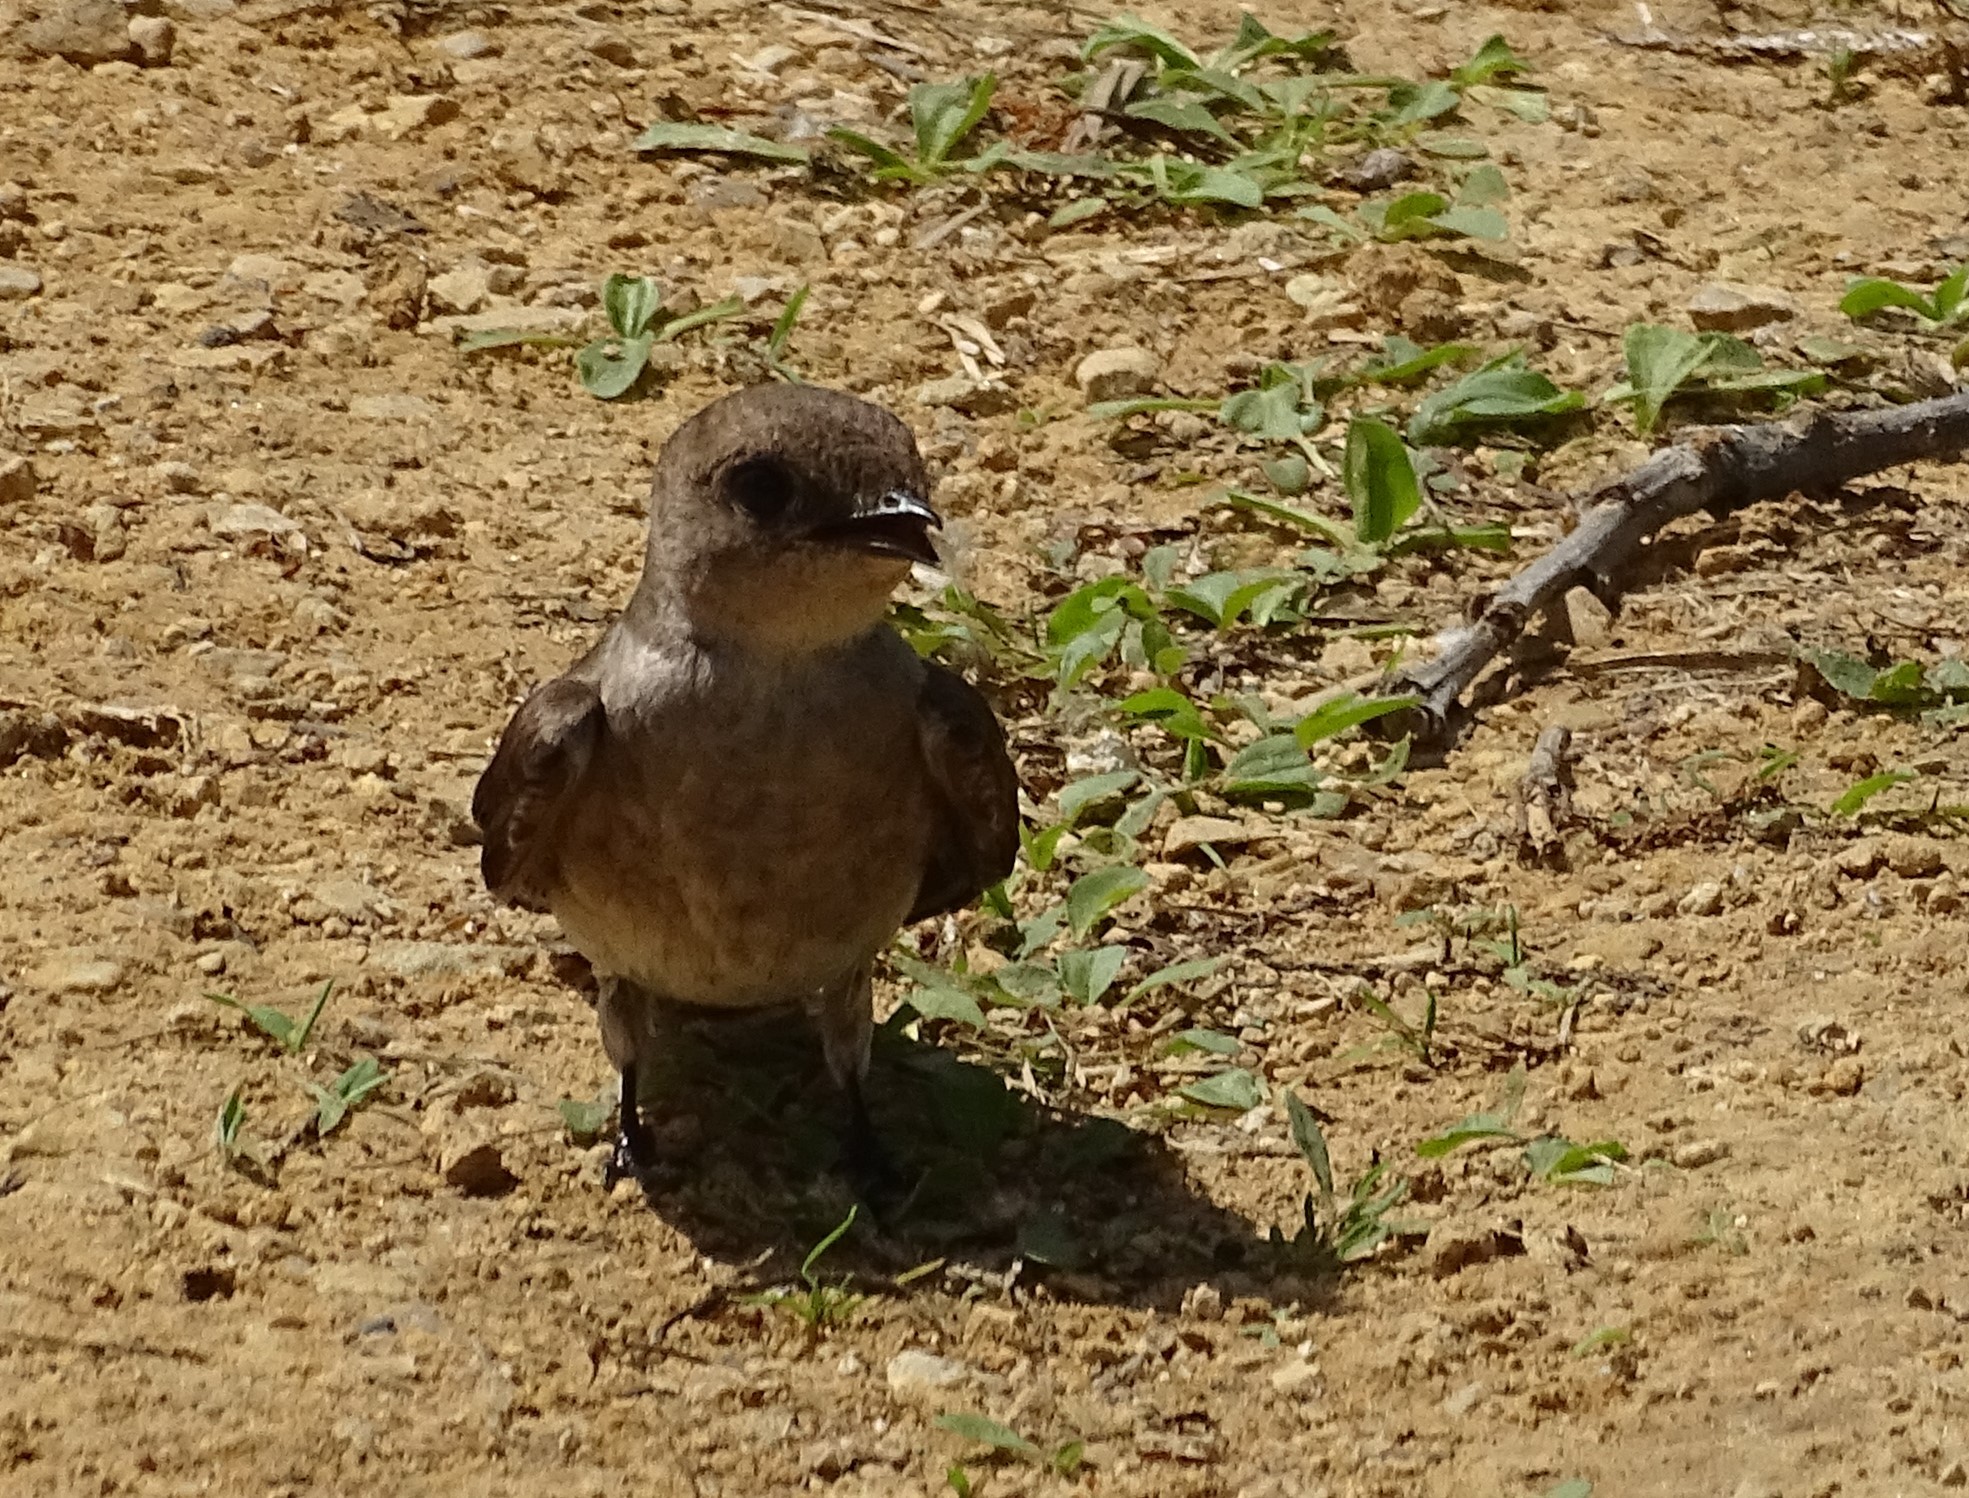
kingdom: Animalia
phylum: Chordata
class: Aves
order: Passeriformes
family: Hirundinidae
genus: Stelgidopteryx
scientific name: Stelgidopteryx serripennis
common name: Northern rough-winged swallow
